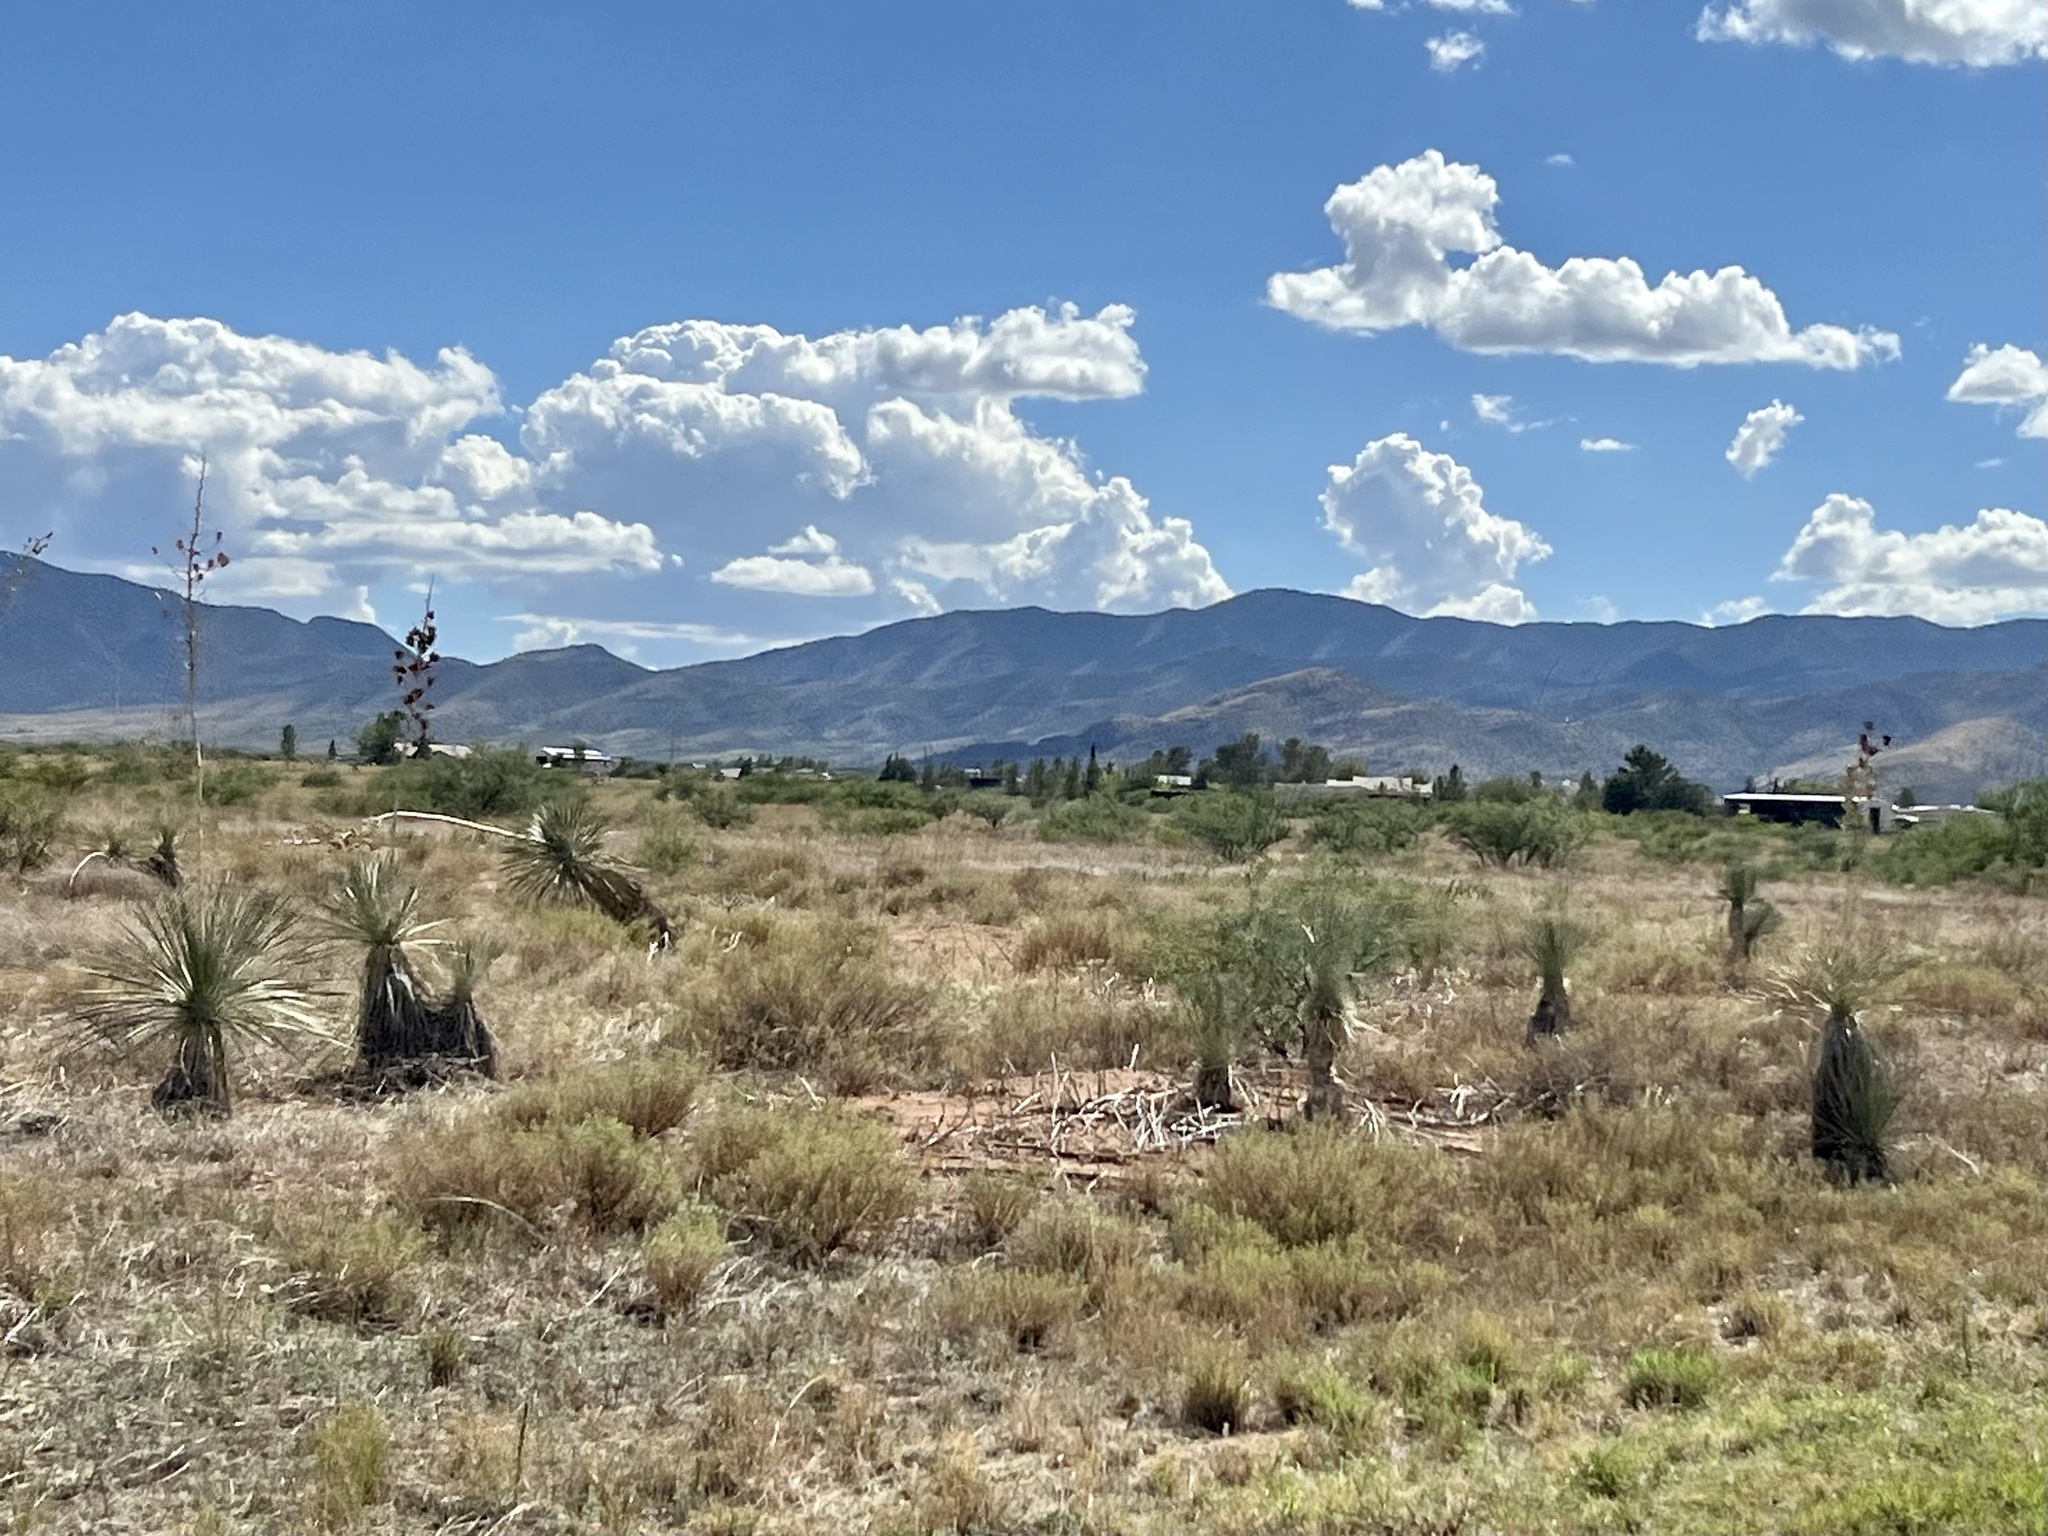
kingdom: Plantae
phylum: Tracheophyta
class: Liliopsida
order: Asparagales
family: Asparagaceae
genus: Yucca
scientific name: Yucca elata
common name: Palmella
